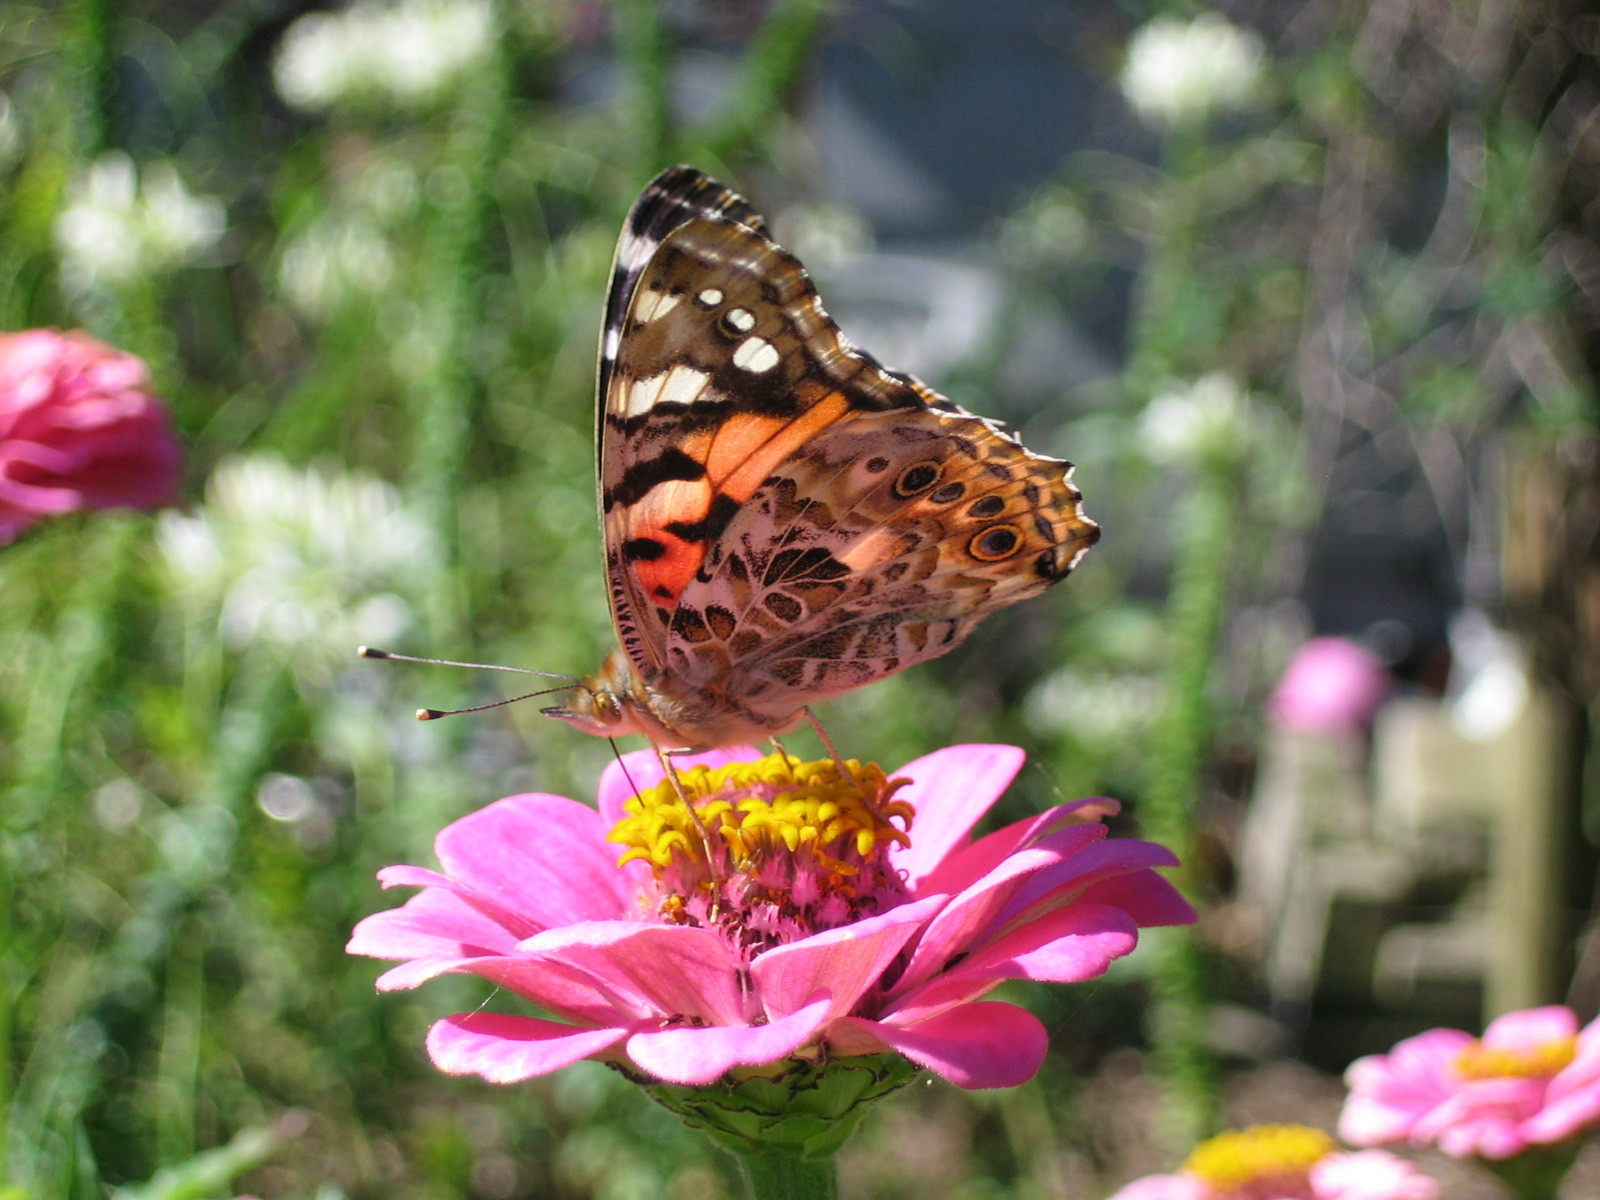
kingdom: Animalia
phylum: Arthropoda
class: Insecta
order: Lepidoptera
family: Nymphalidae
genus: Vanessa
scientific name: Vanessa cardui
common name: Painted lady
